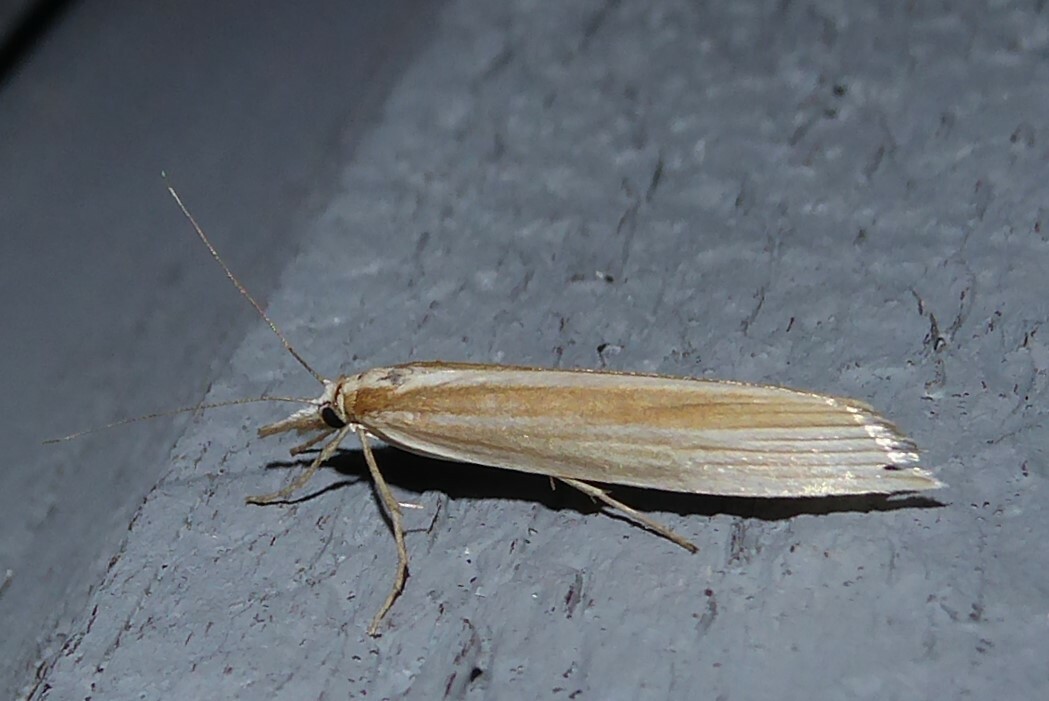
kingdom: Animalia
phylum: Arthropoda
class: Insecta
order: Lepidoptera
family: Crambidae
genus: Orocrambus
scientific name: Orocrambus angustipennis
